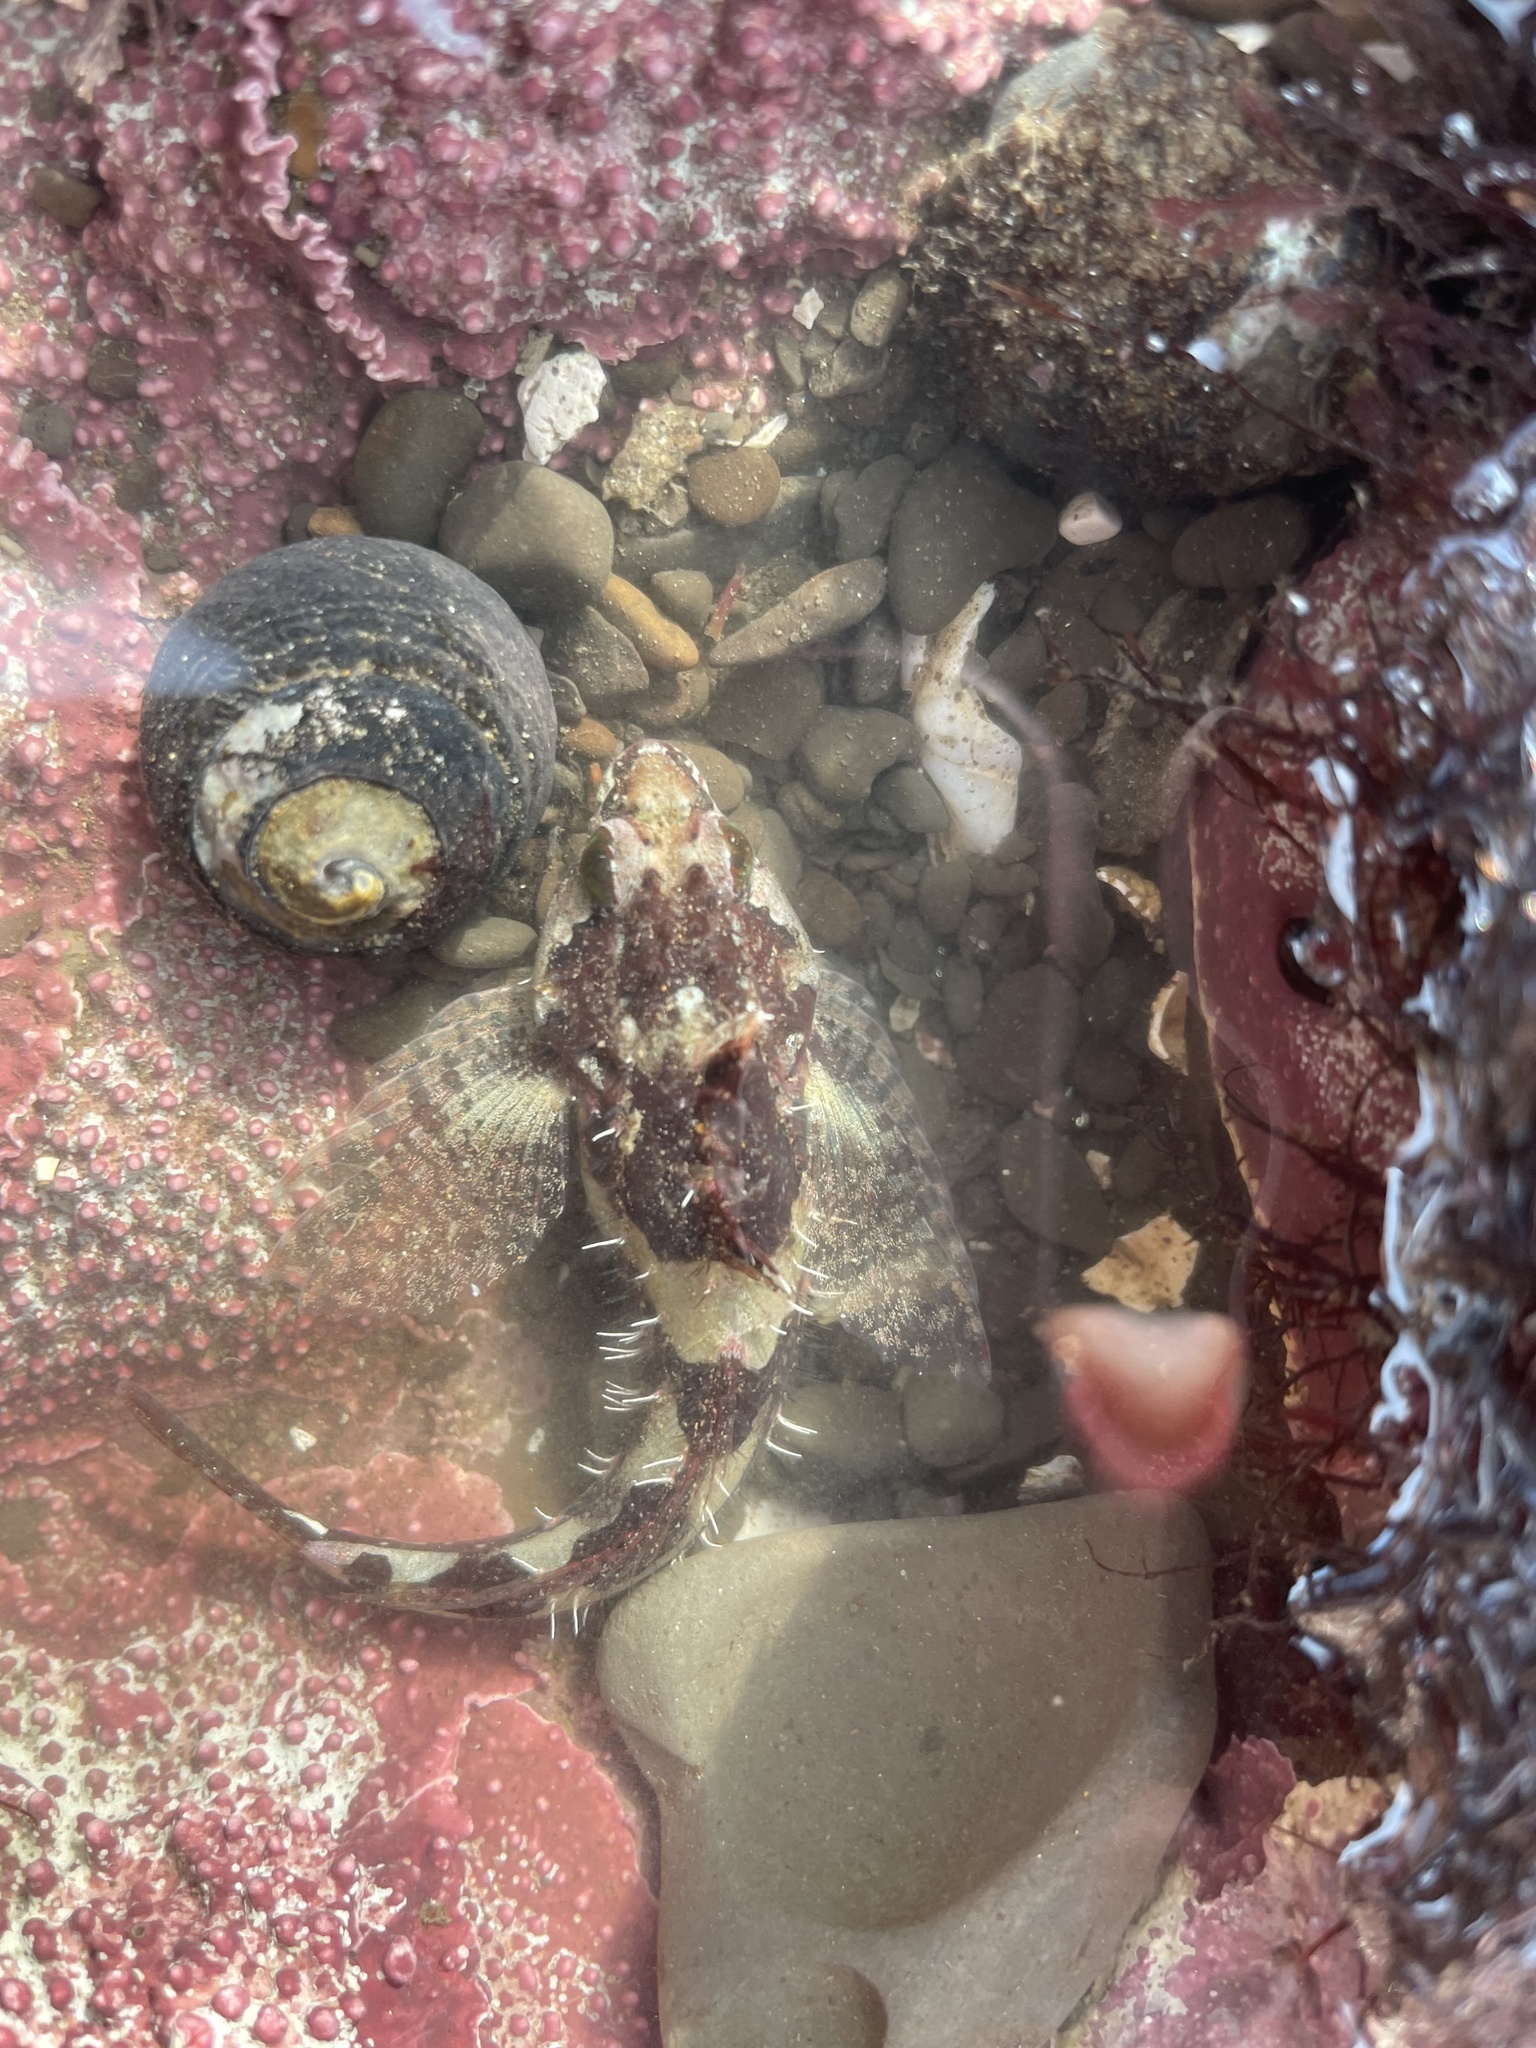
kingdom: Animalia
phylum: Chordata
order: Scorpaeniformes
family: Cottidae
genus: Oligocottus
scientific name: Oligocottus rubellio
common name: Rosy sculpin
